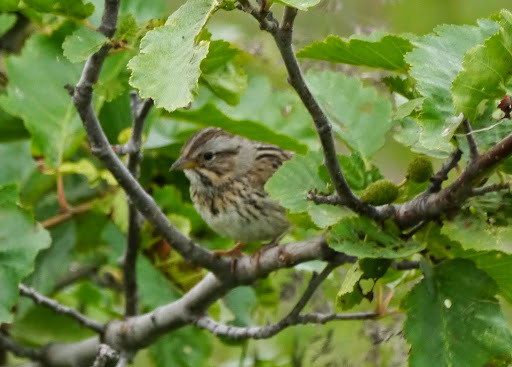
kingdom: Animalia
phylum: Chordata
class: Aves
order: Passeriformes
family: Passerellidae
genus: Melospiza
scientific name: Melospiza lincolnii
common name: Lincoln's sparrow
